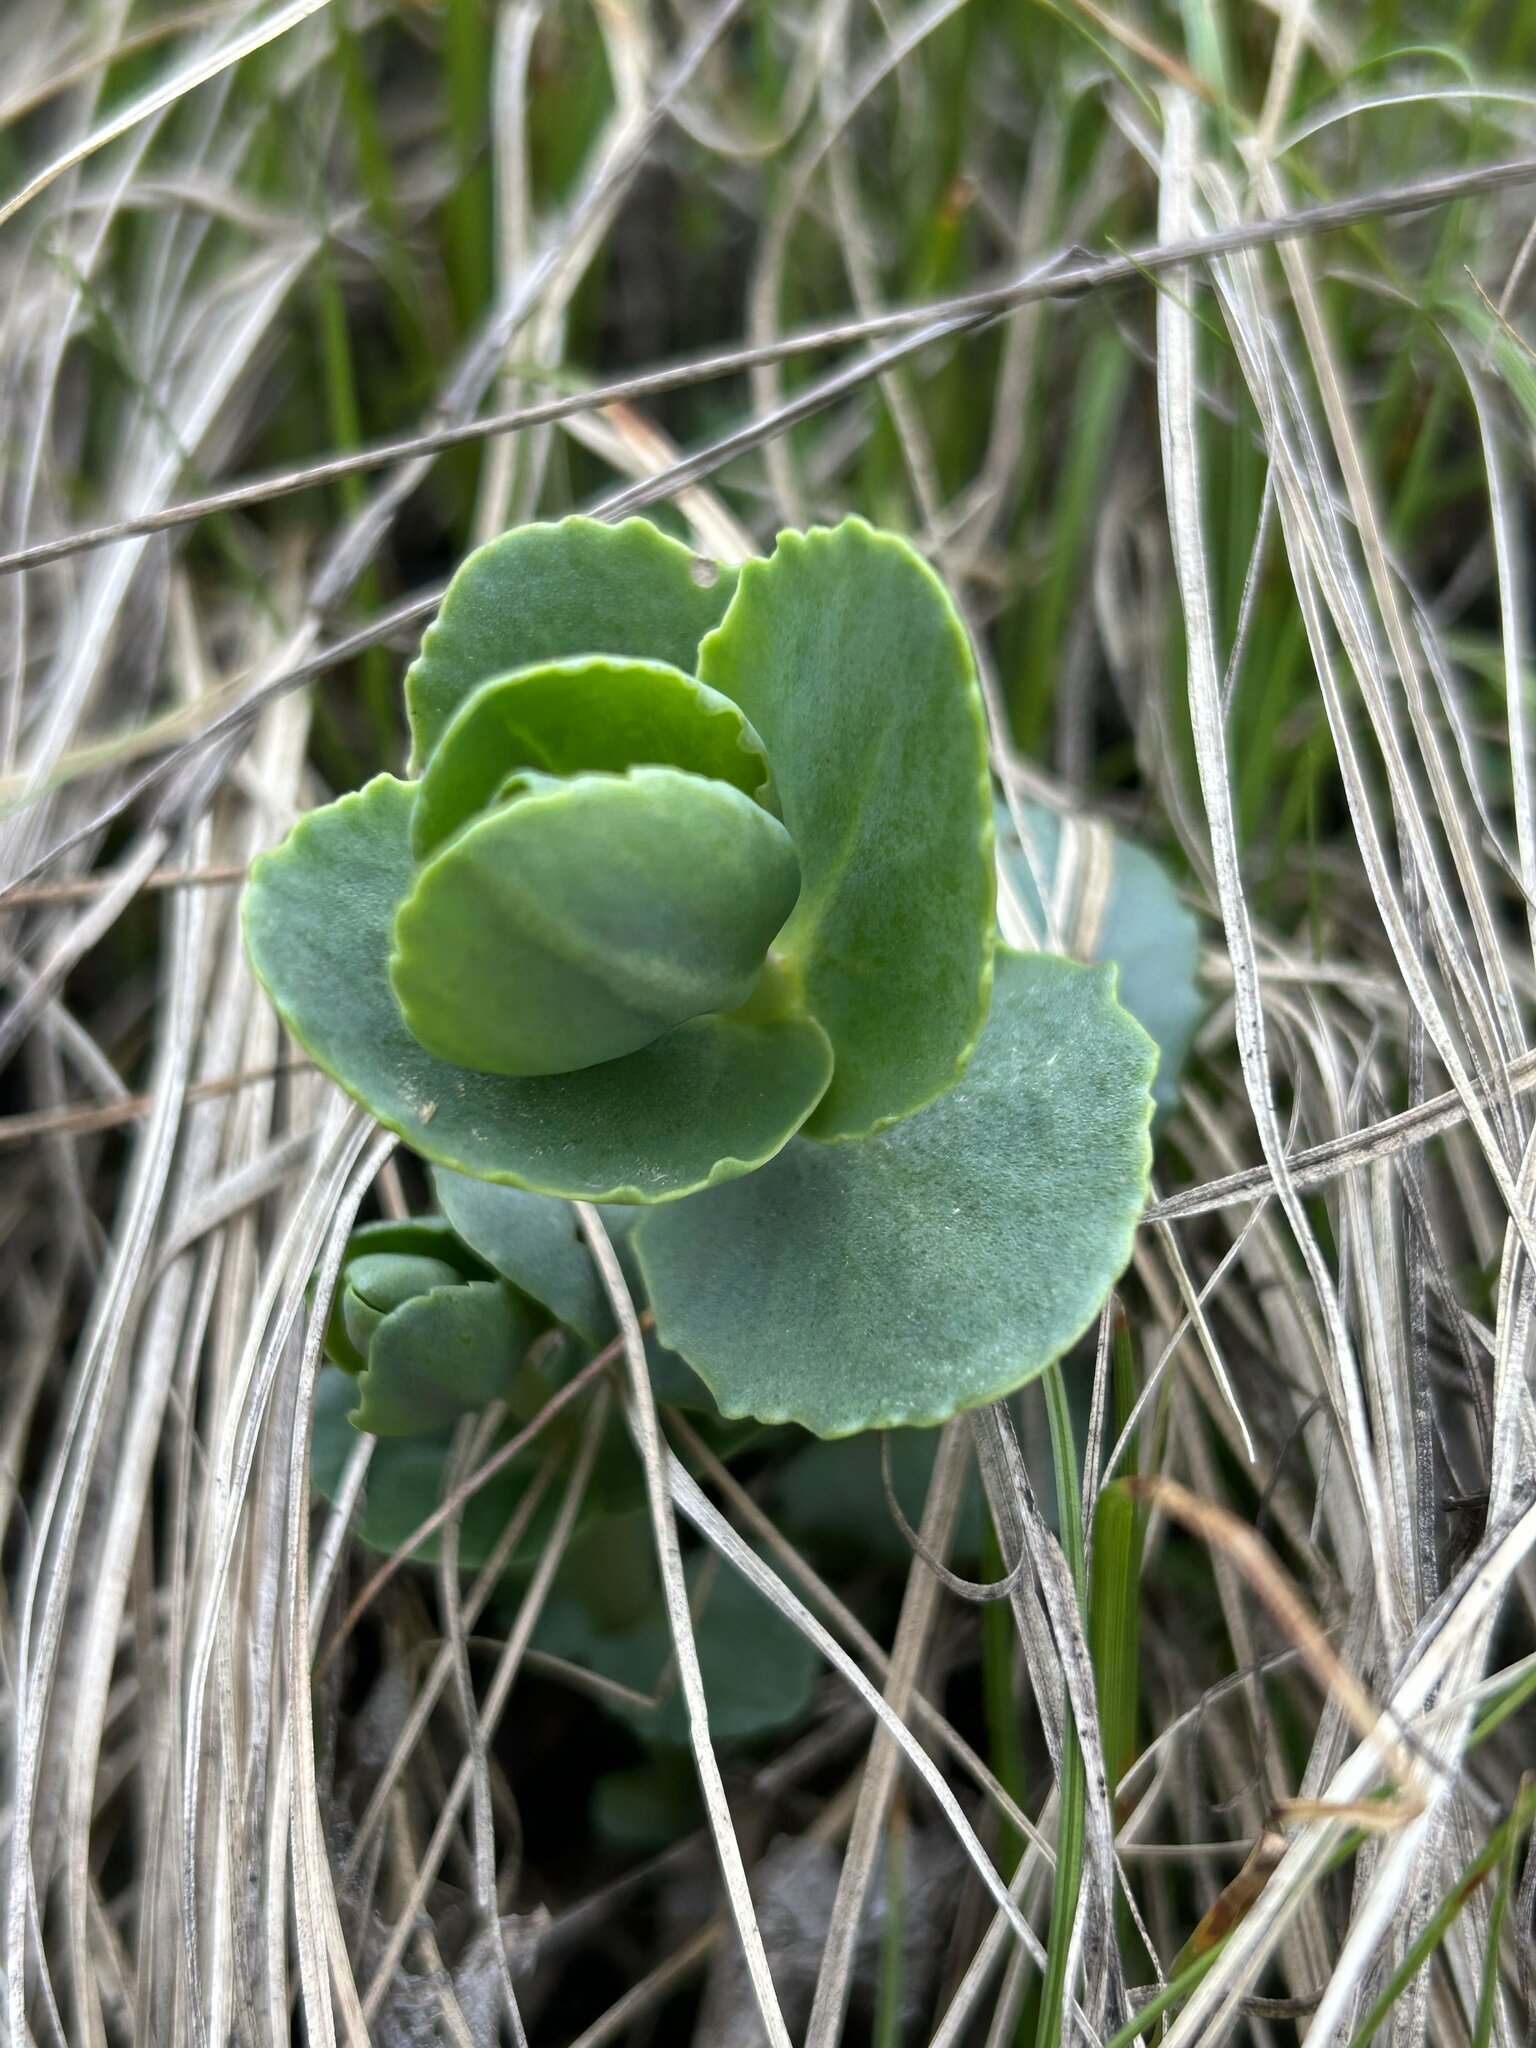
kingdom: Plantae
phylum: Tracheophyta
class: Magnoliopsida
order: Saxifragales
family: Crassulaceae
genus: Hylotelephium
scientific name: Hylotelephium maximum
